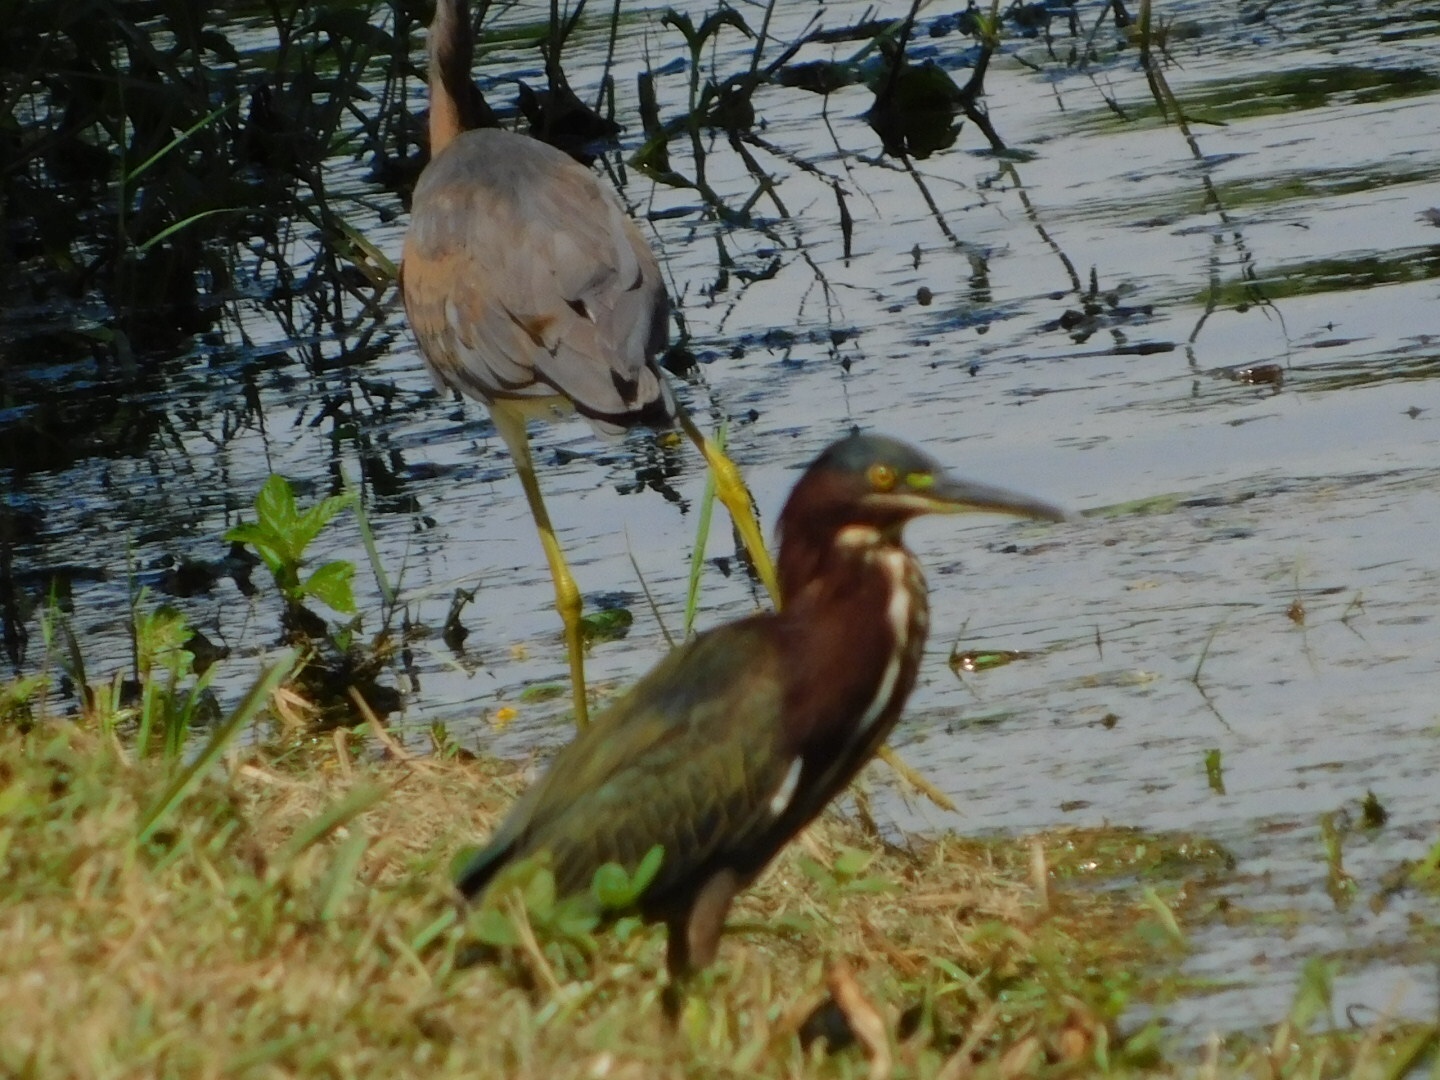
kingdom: Animalia
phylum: Chordata
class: Aves
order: Pelecaniformes
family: Ardeidae
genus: Butorides
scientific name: Butorides virescens
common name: Green heron
